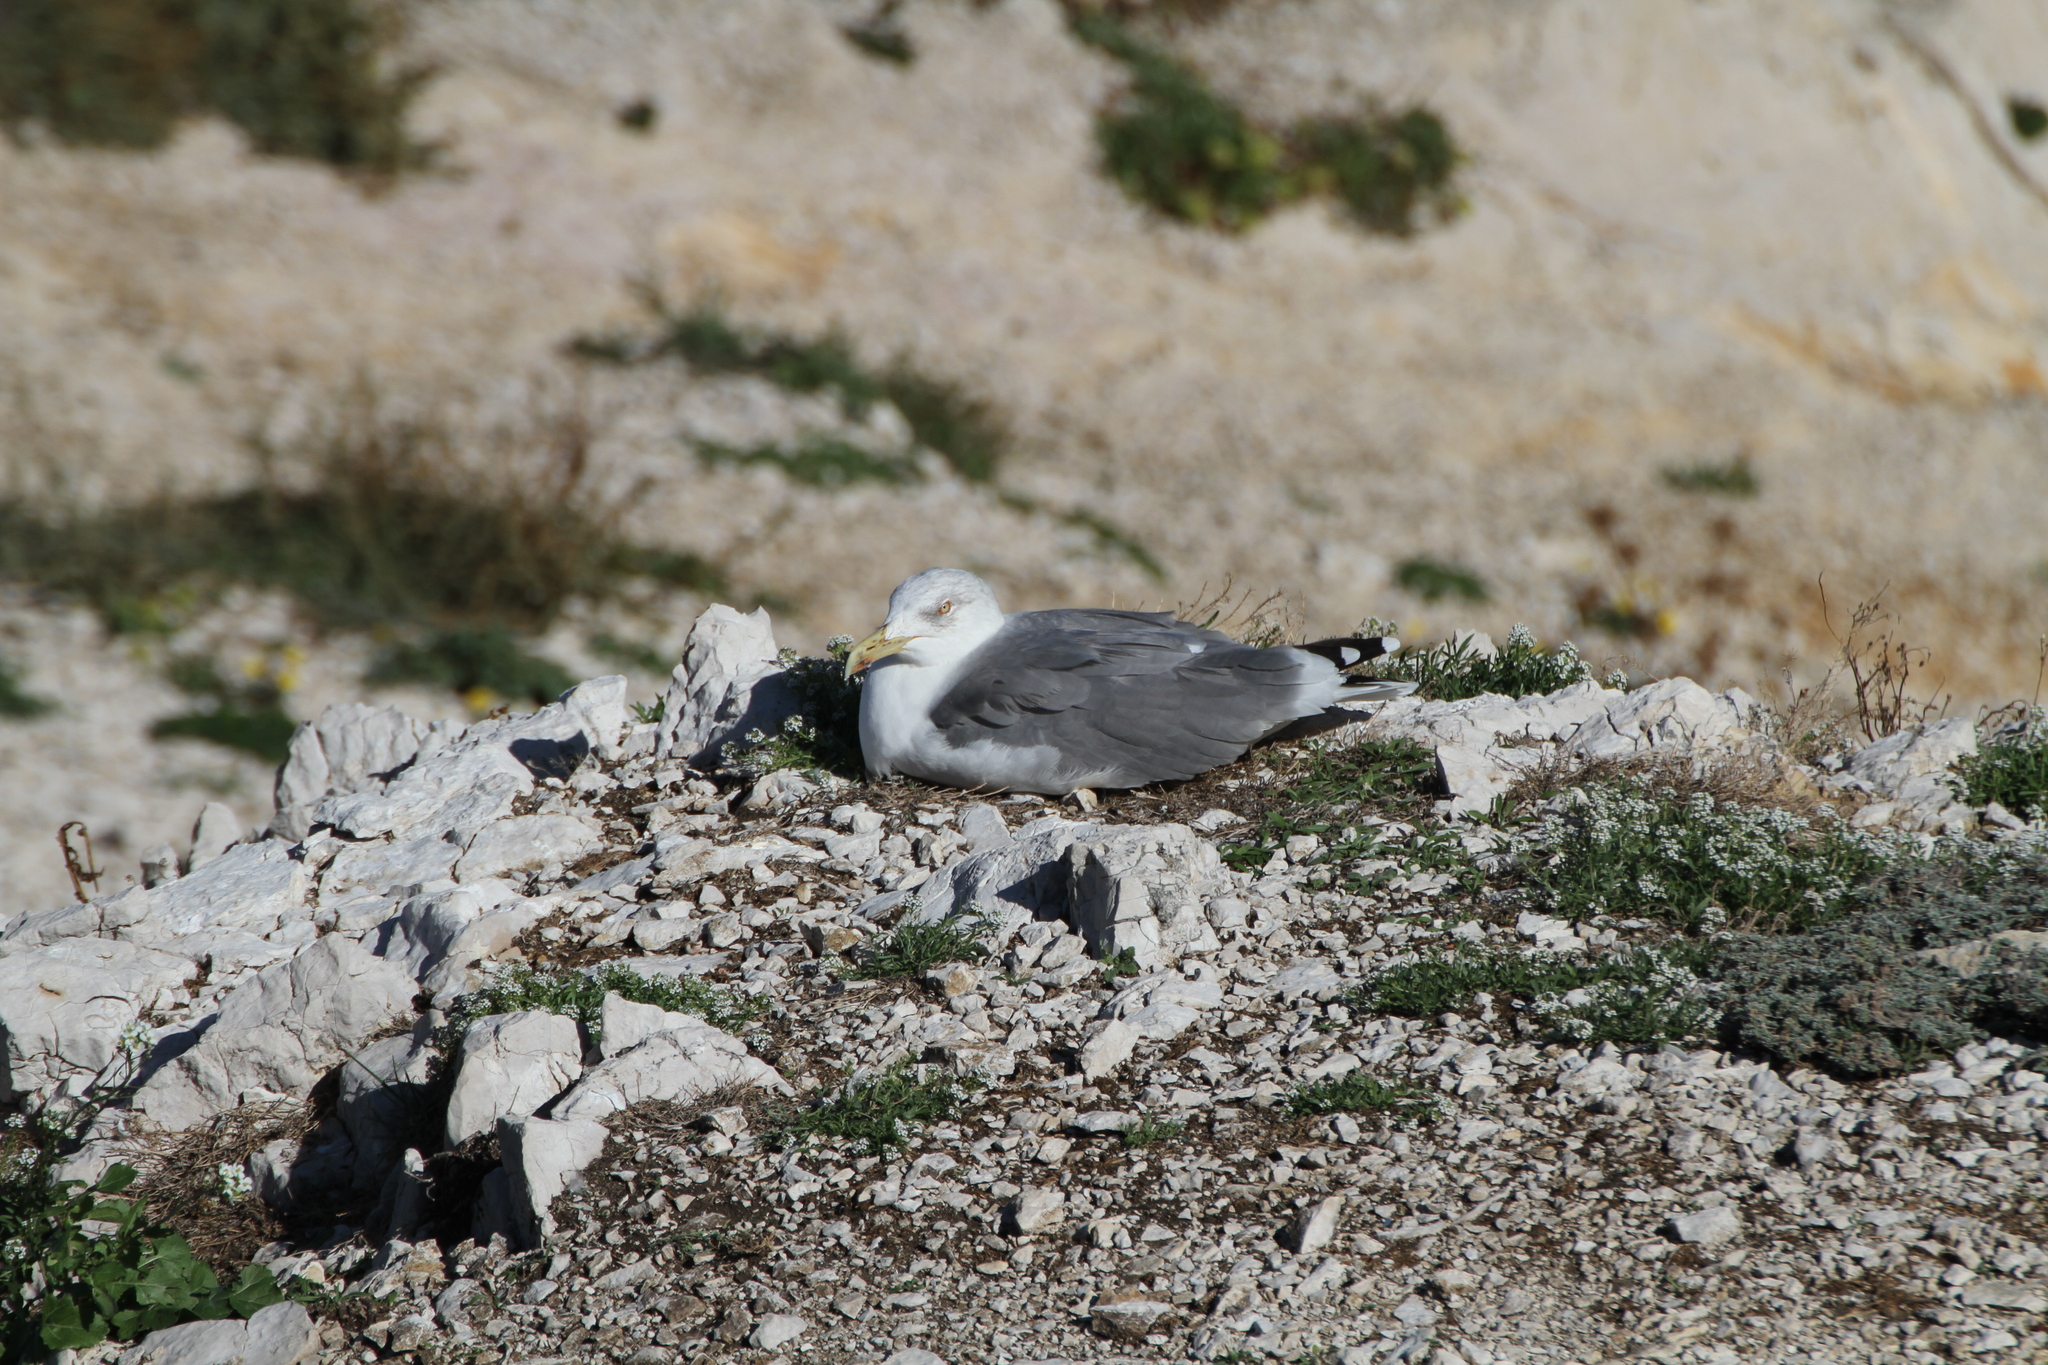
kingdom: Animalia
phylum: Chordata
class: Aves
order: Charadriiformes
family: Laridae
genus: Larus
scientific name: Larus michahellis
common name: Yellow-legged gull
